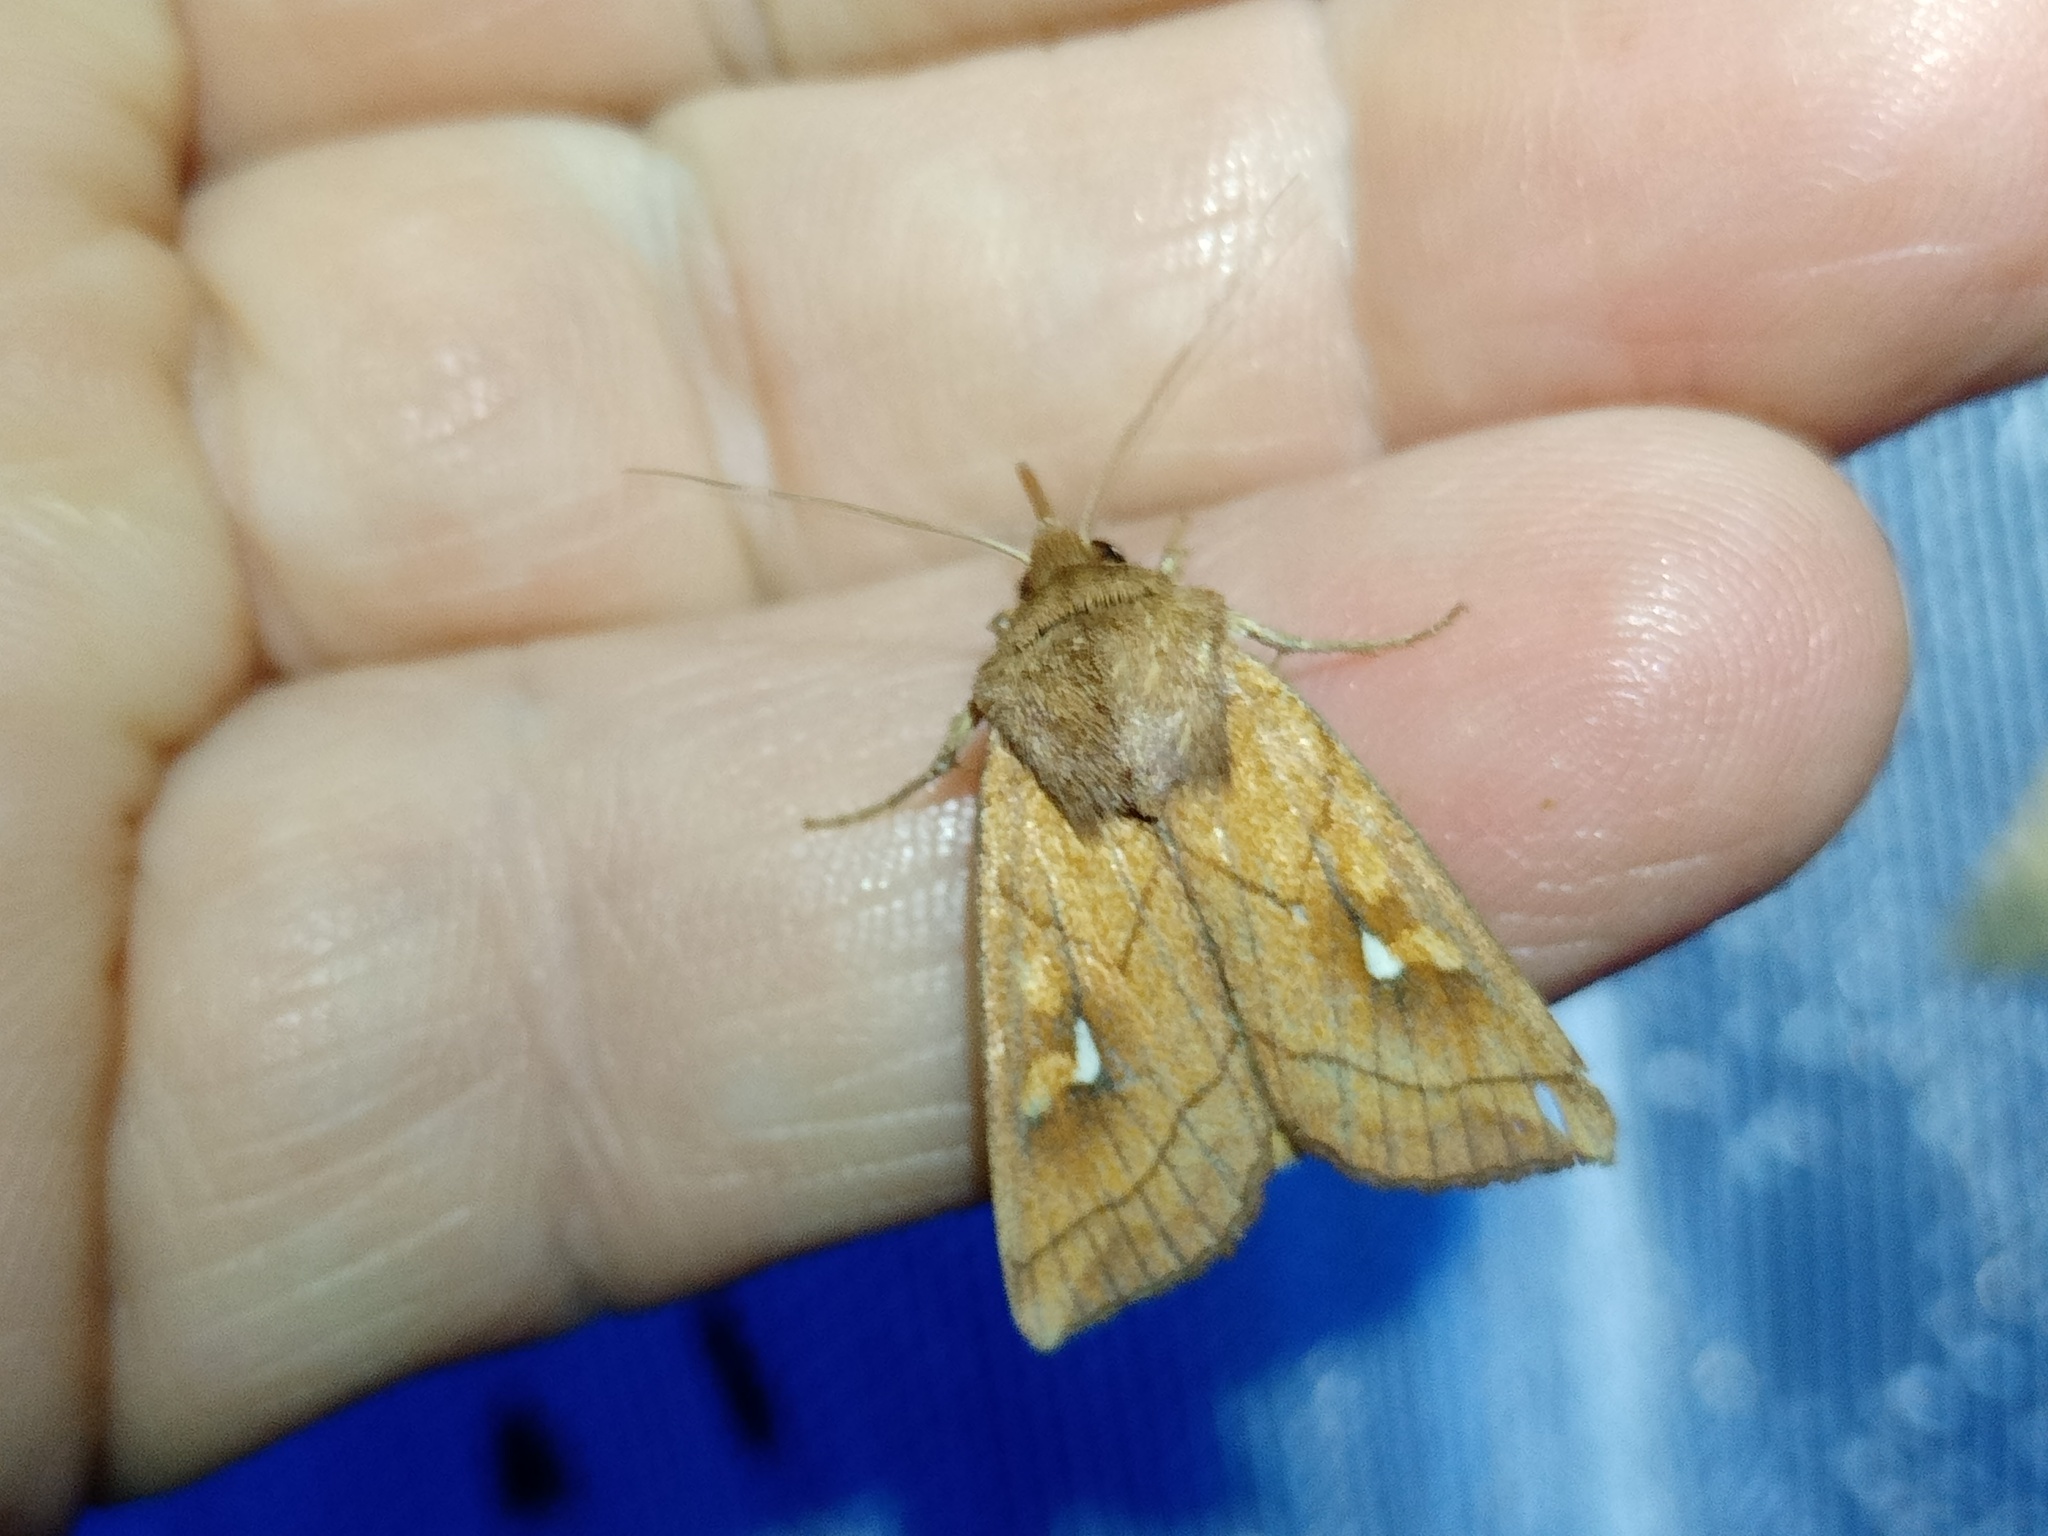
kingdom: Animalia
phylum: Arthropoda
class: Insecta
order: Lepidoptera
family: Noctuidae
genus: Mythimna
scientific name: Mythimna conigera
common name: Brown-line bright-eye
